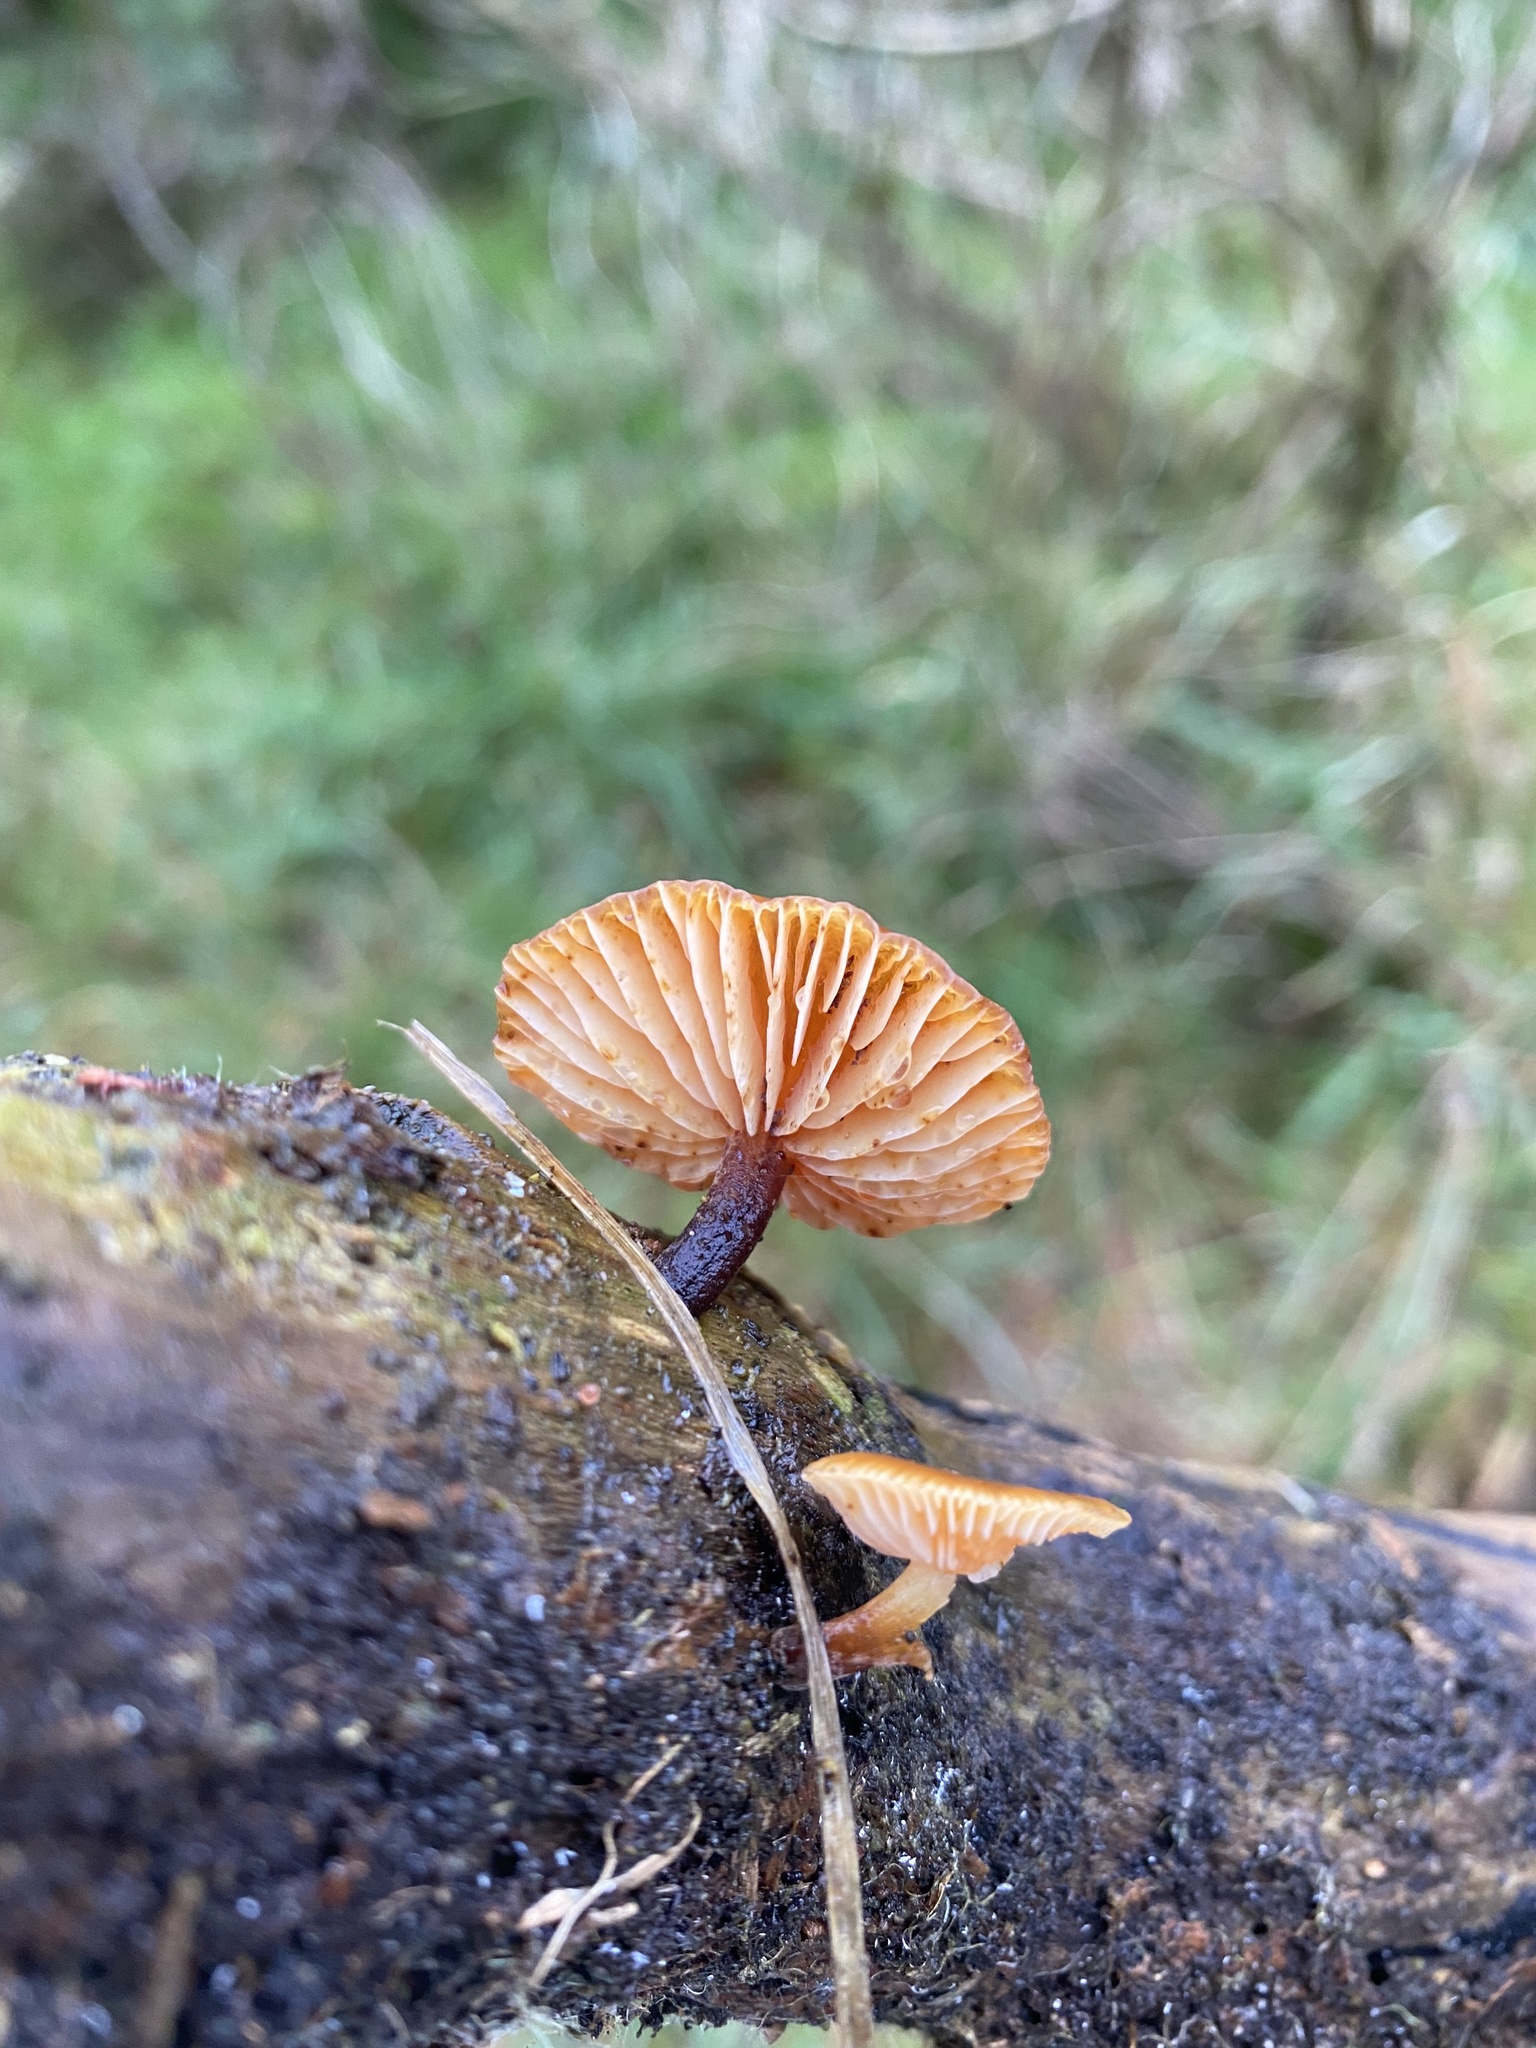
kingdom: Fungi
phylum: Basidiomycota
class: Agaricomycetes
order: Agaricales
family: Physalacriaceae
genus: Flammulina
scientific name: Flammulina velutipes
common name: Velvet shank
